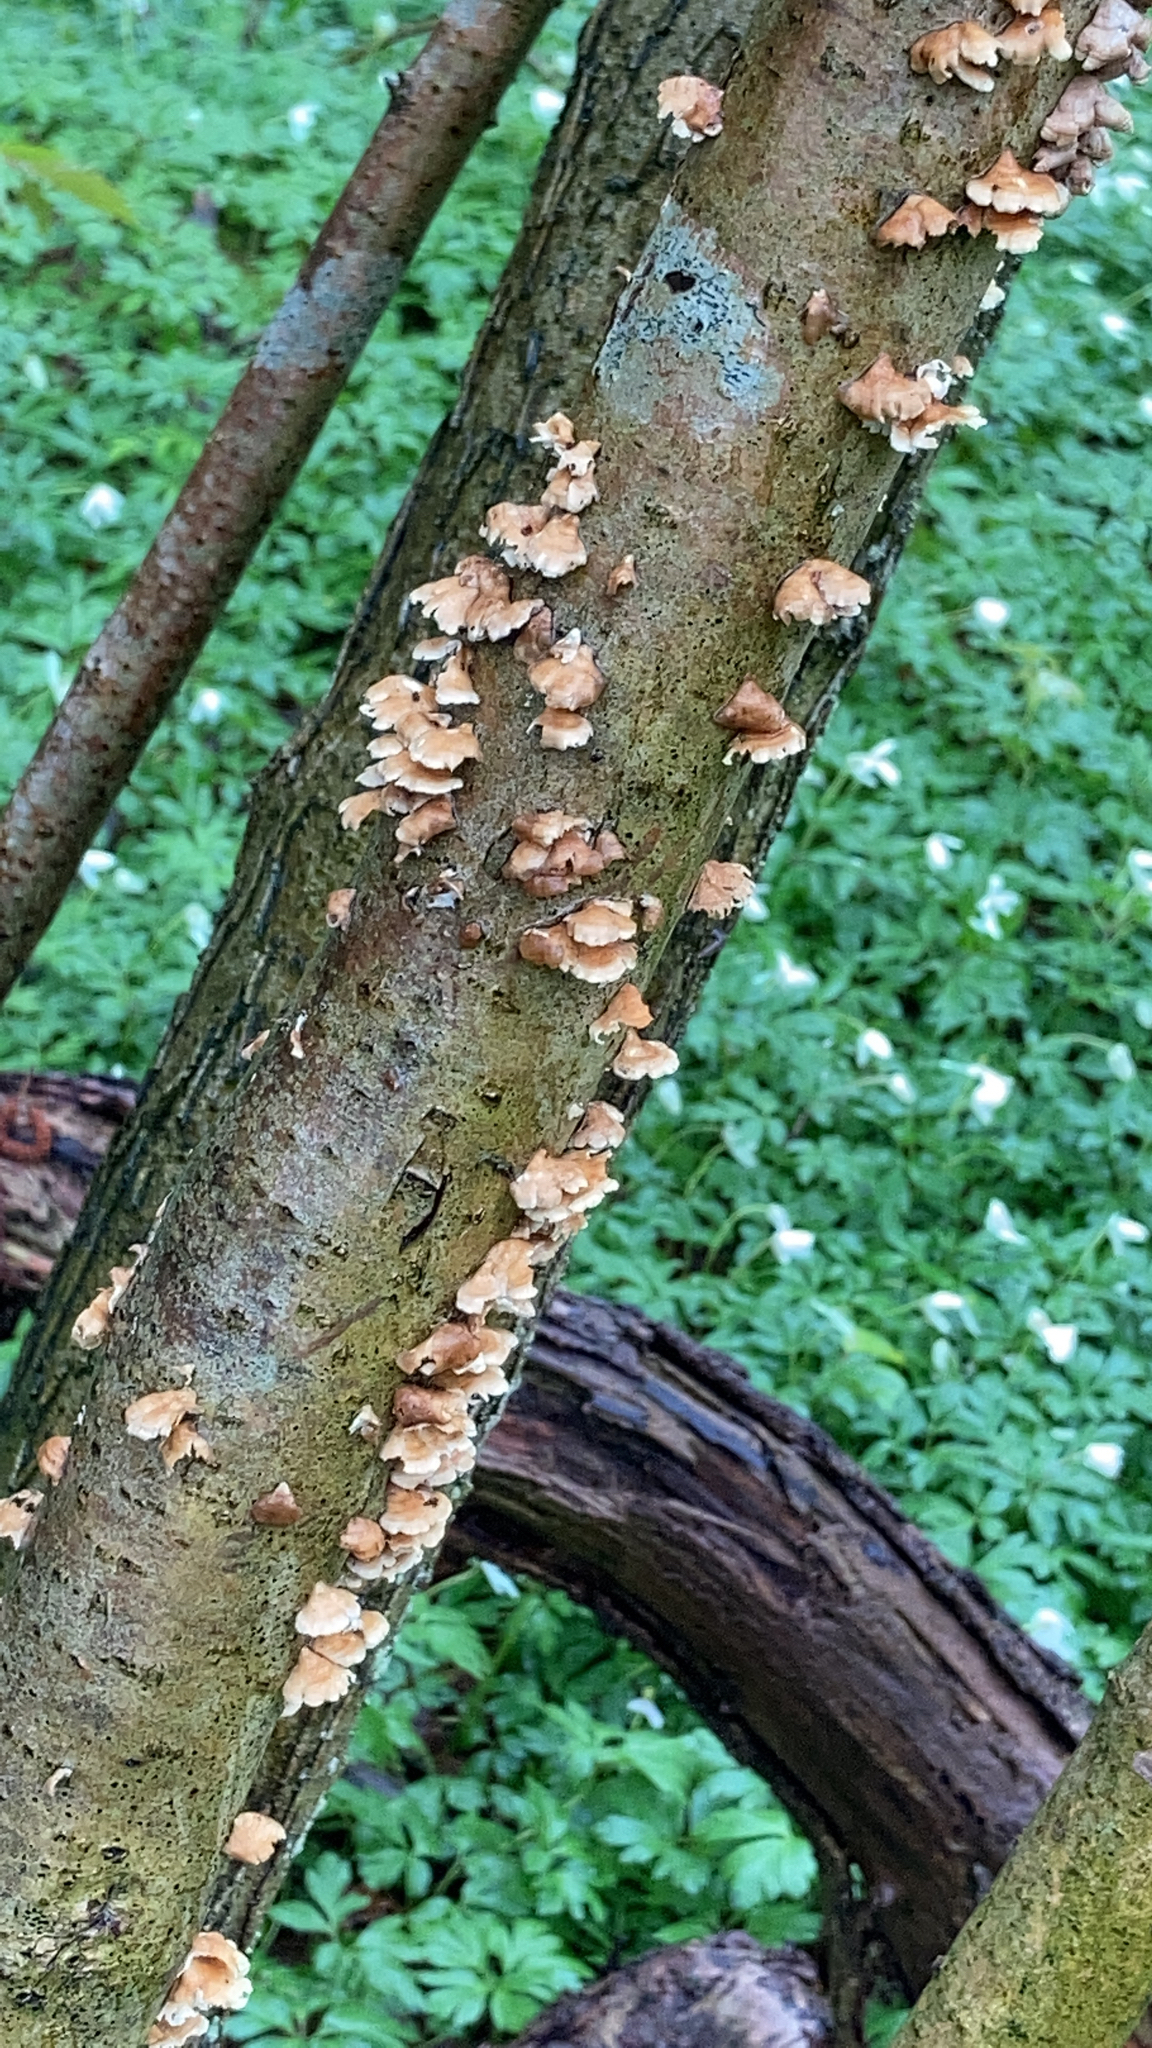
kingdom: Fungi
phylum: Basidiomycota
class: Agaricomycetes
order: Amylocorticiales
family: Amylocorticiaceae
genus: Plicaturopsis
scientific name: Plicaturopsis crispa
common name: Crimped gill
